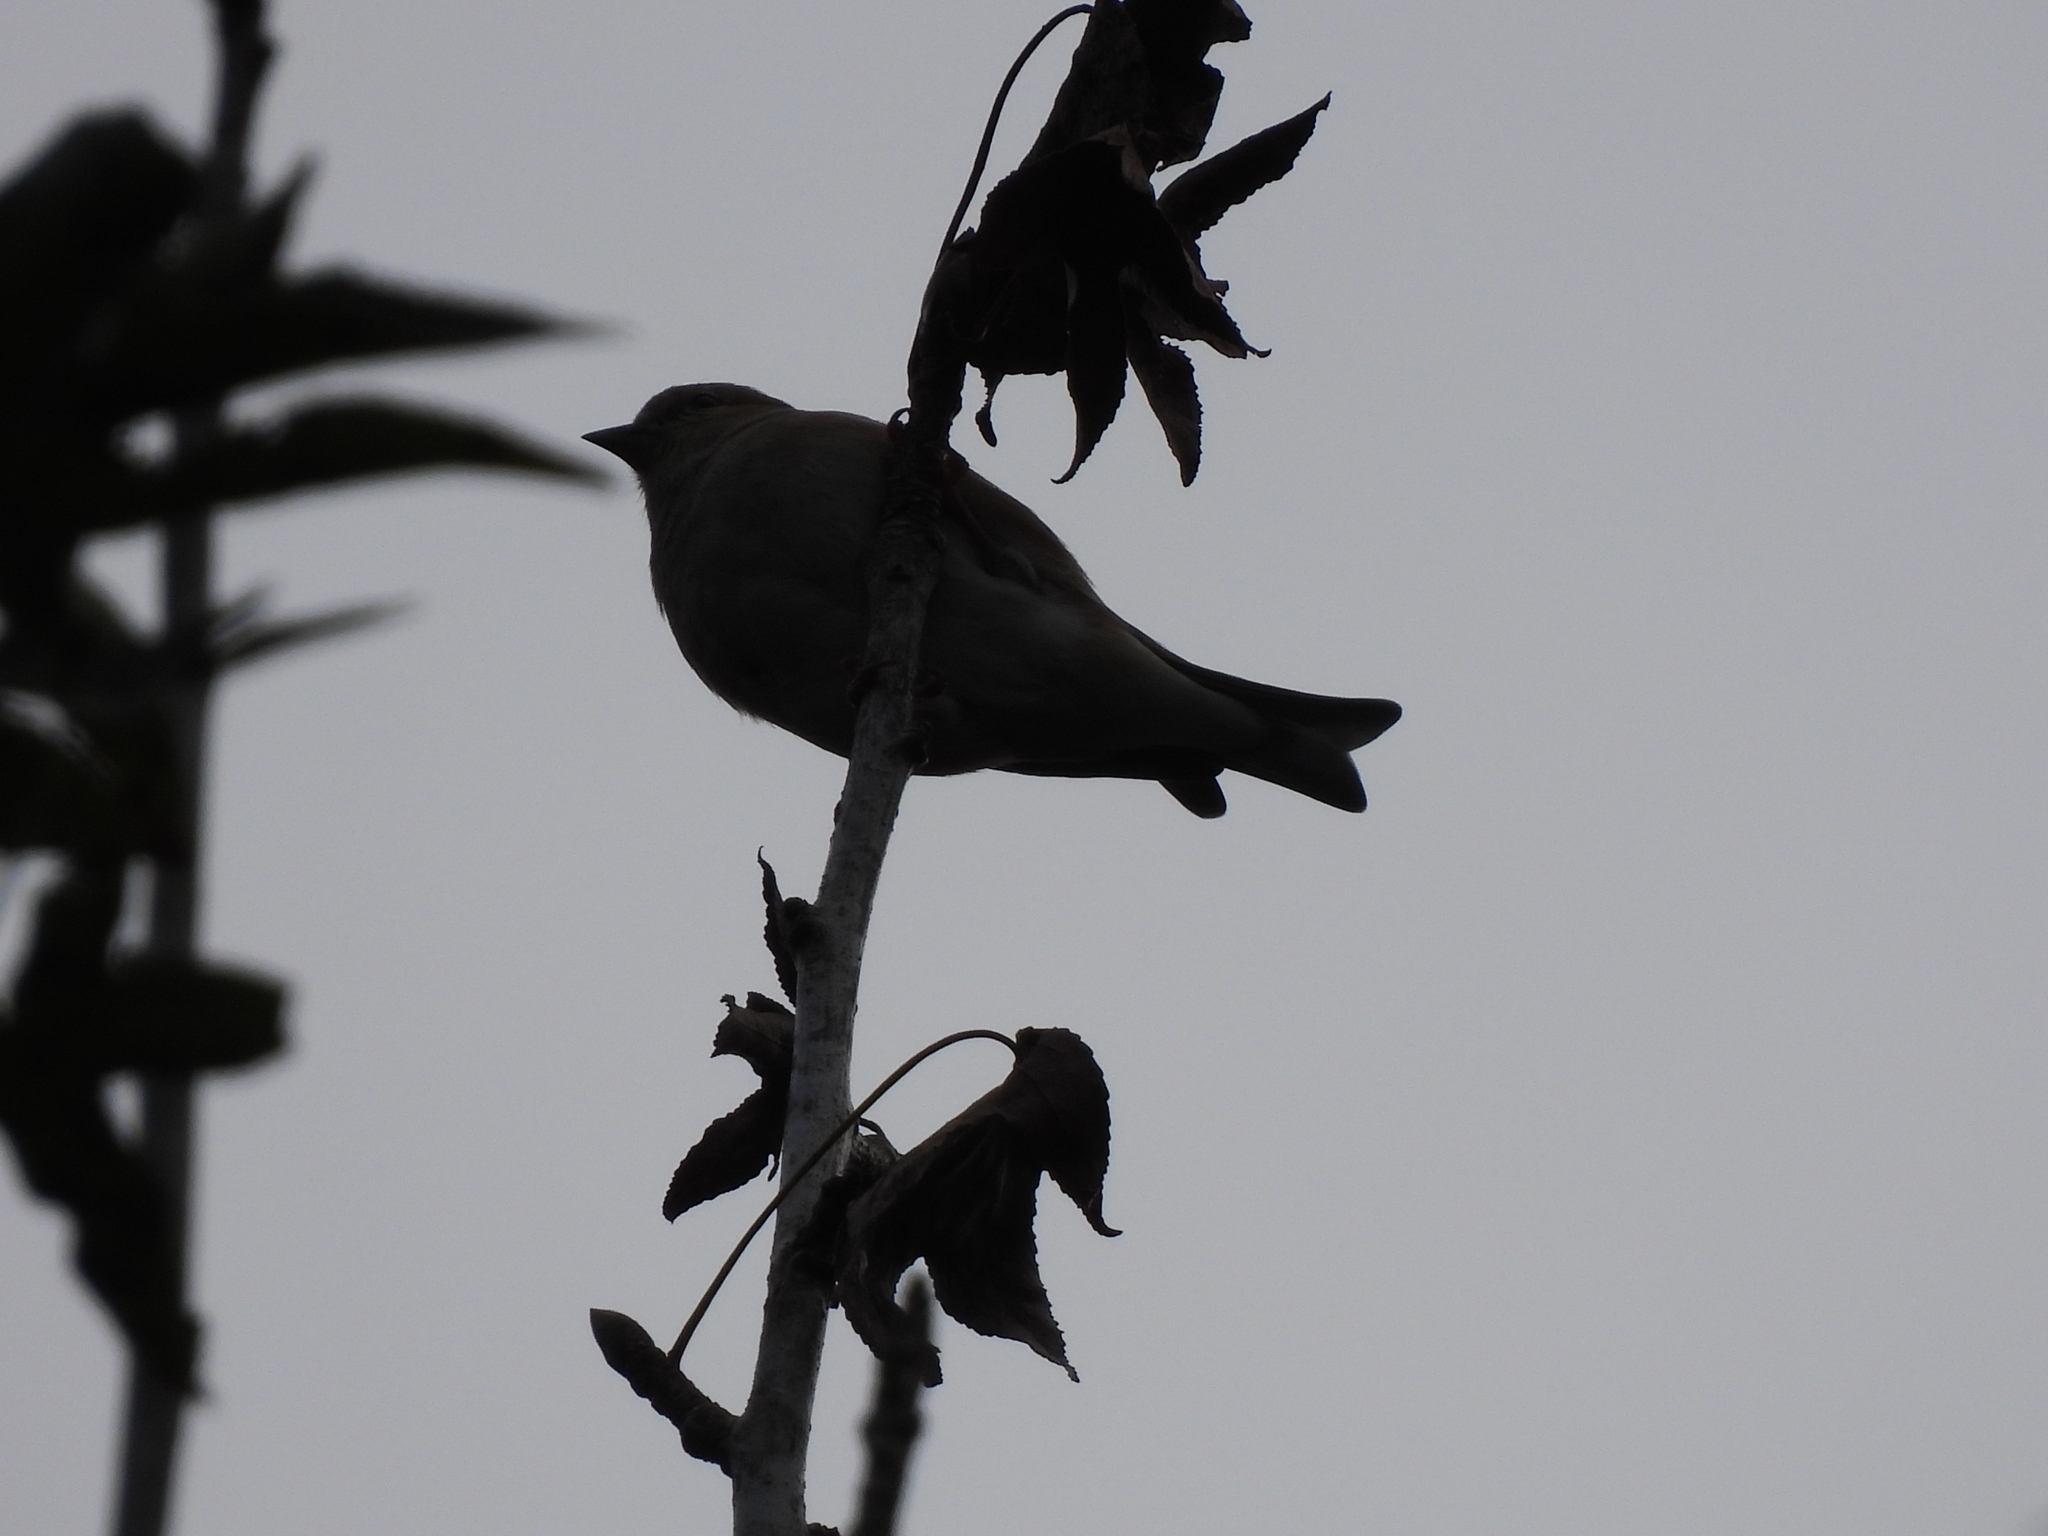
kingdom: Animalia
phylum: Chordata
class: Aves
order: Passeriformes
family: Fringillidae
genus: Spinus
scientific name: Spinus tristis
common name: American goldfinch
